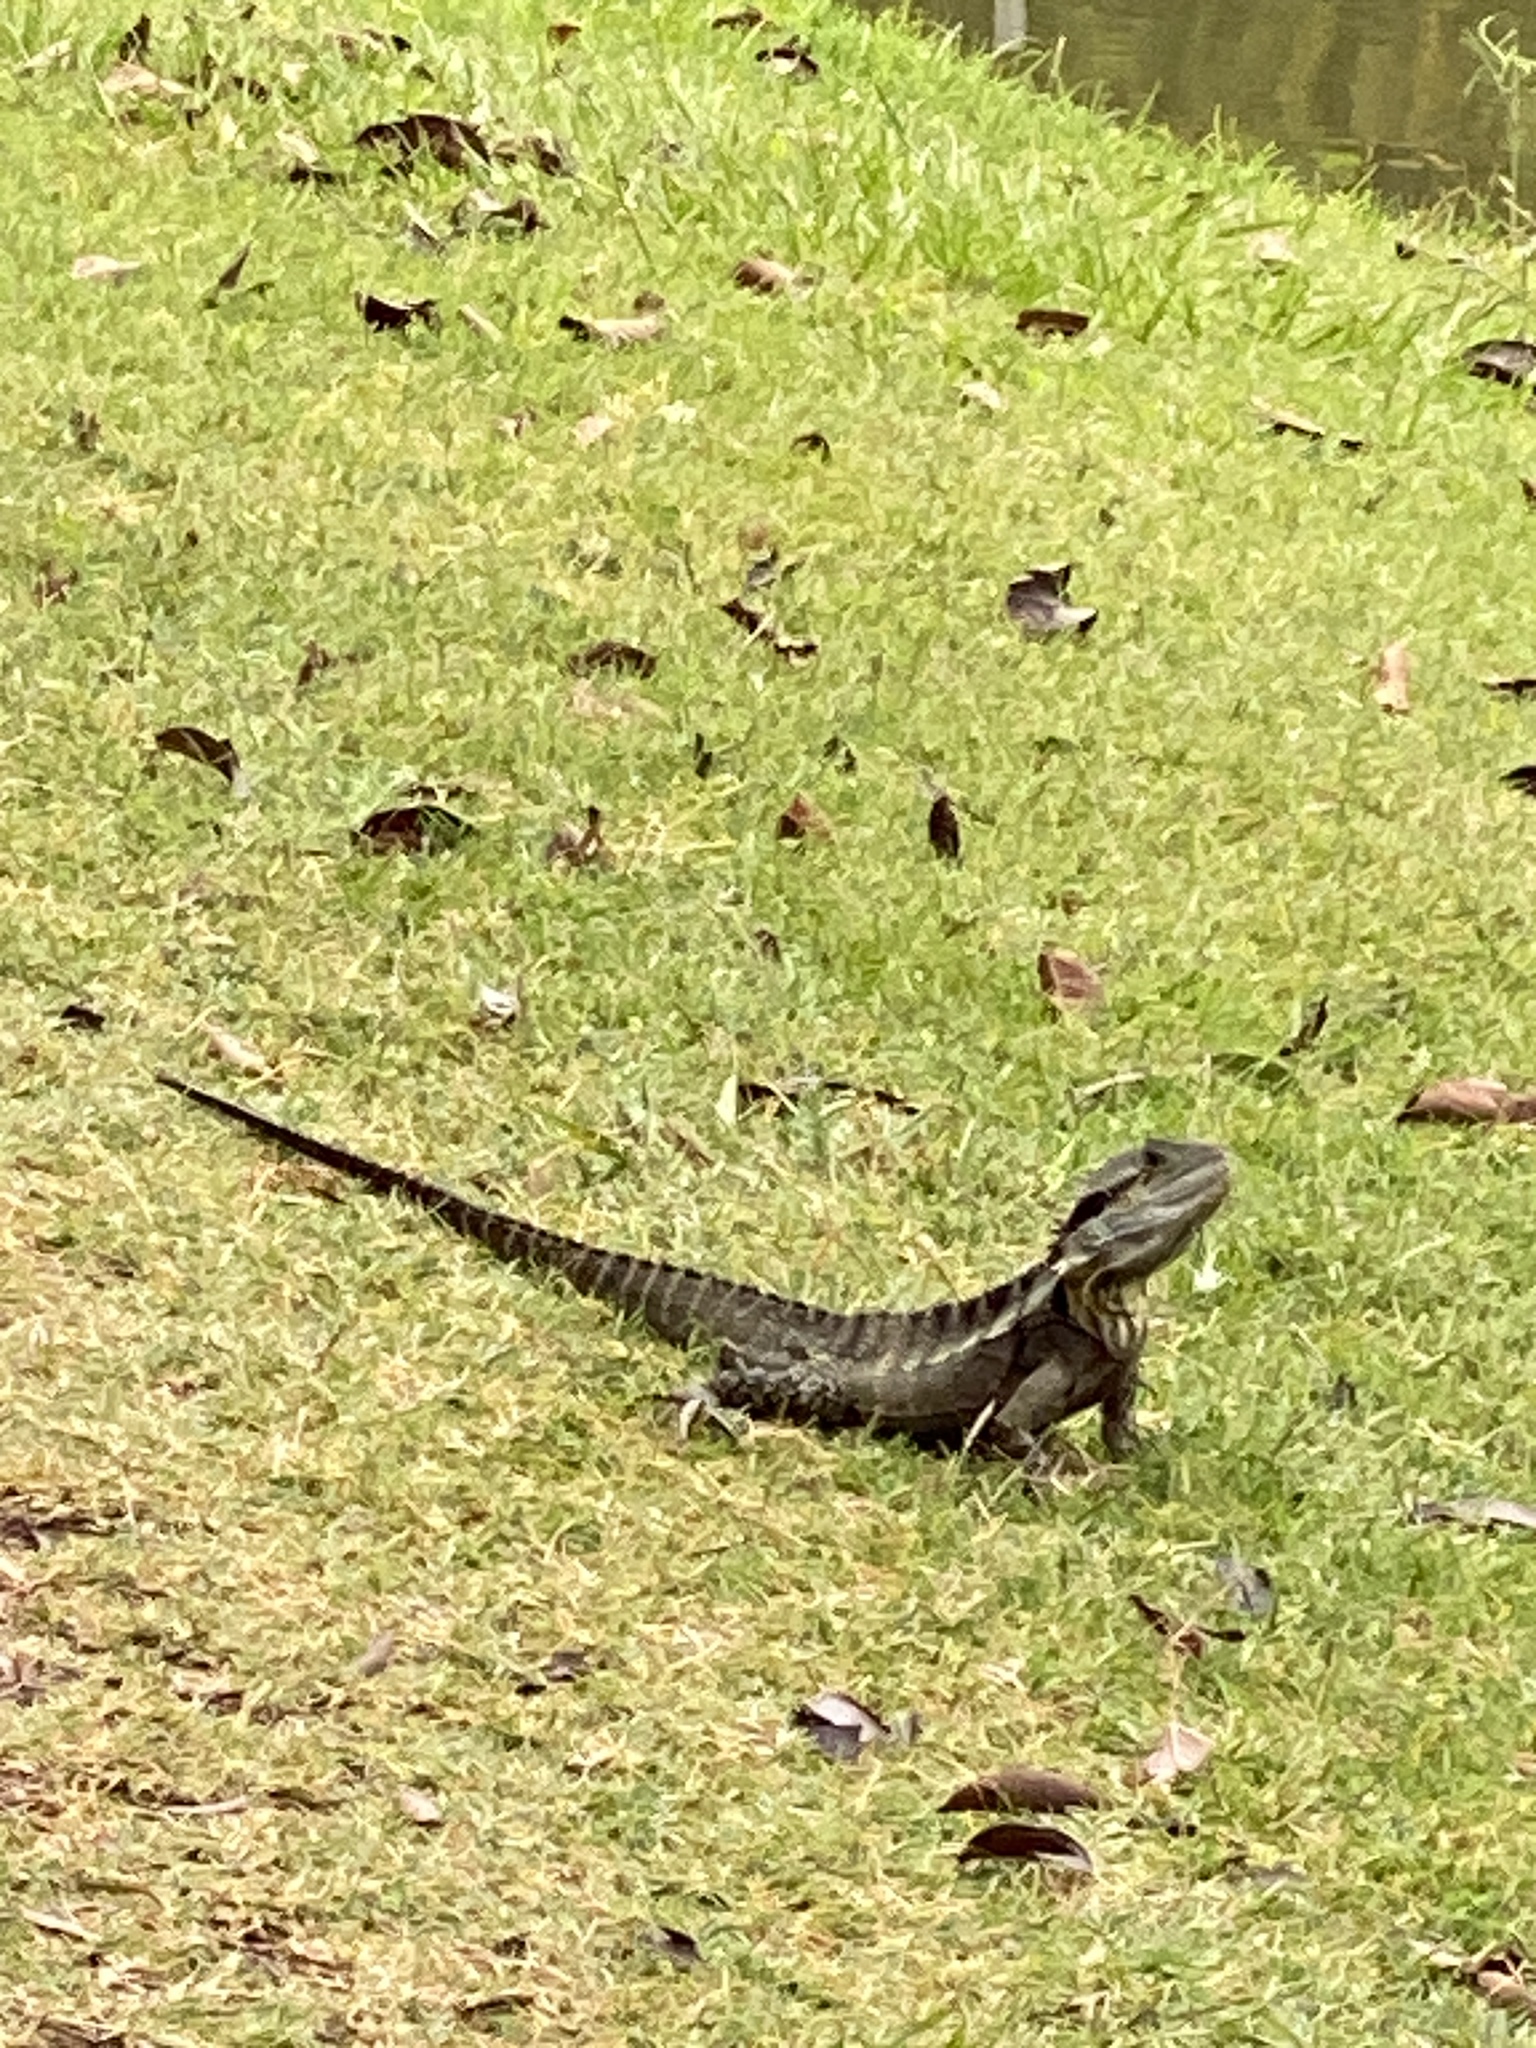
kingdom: Animalia
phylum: Chordata
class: Squamata
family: Agamidae
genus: Intellagama
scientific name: Intellagama lesueurii
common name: Eastern water dragon
